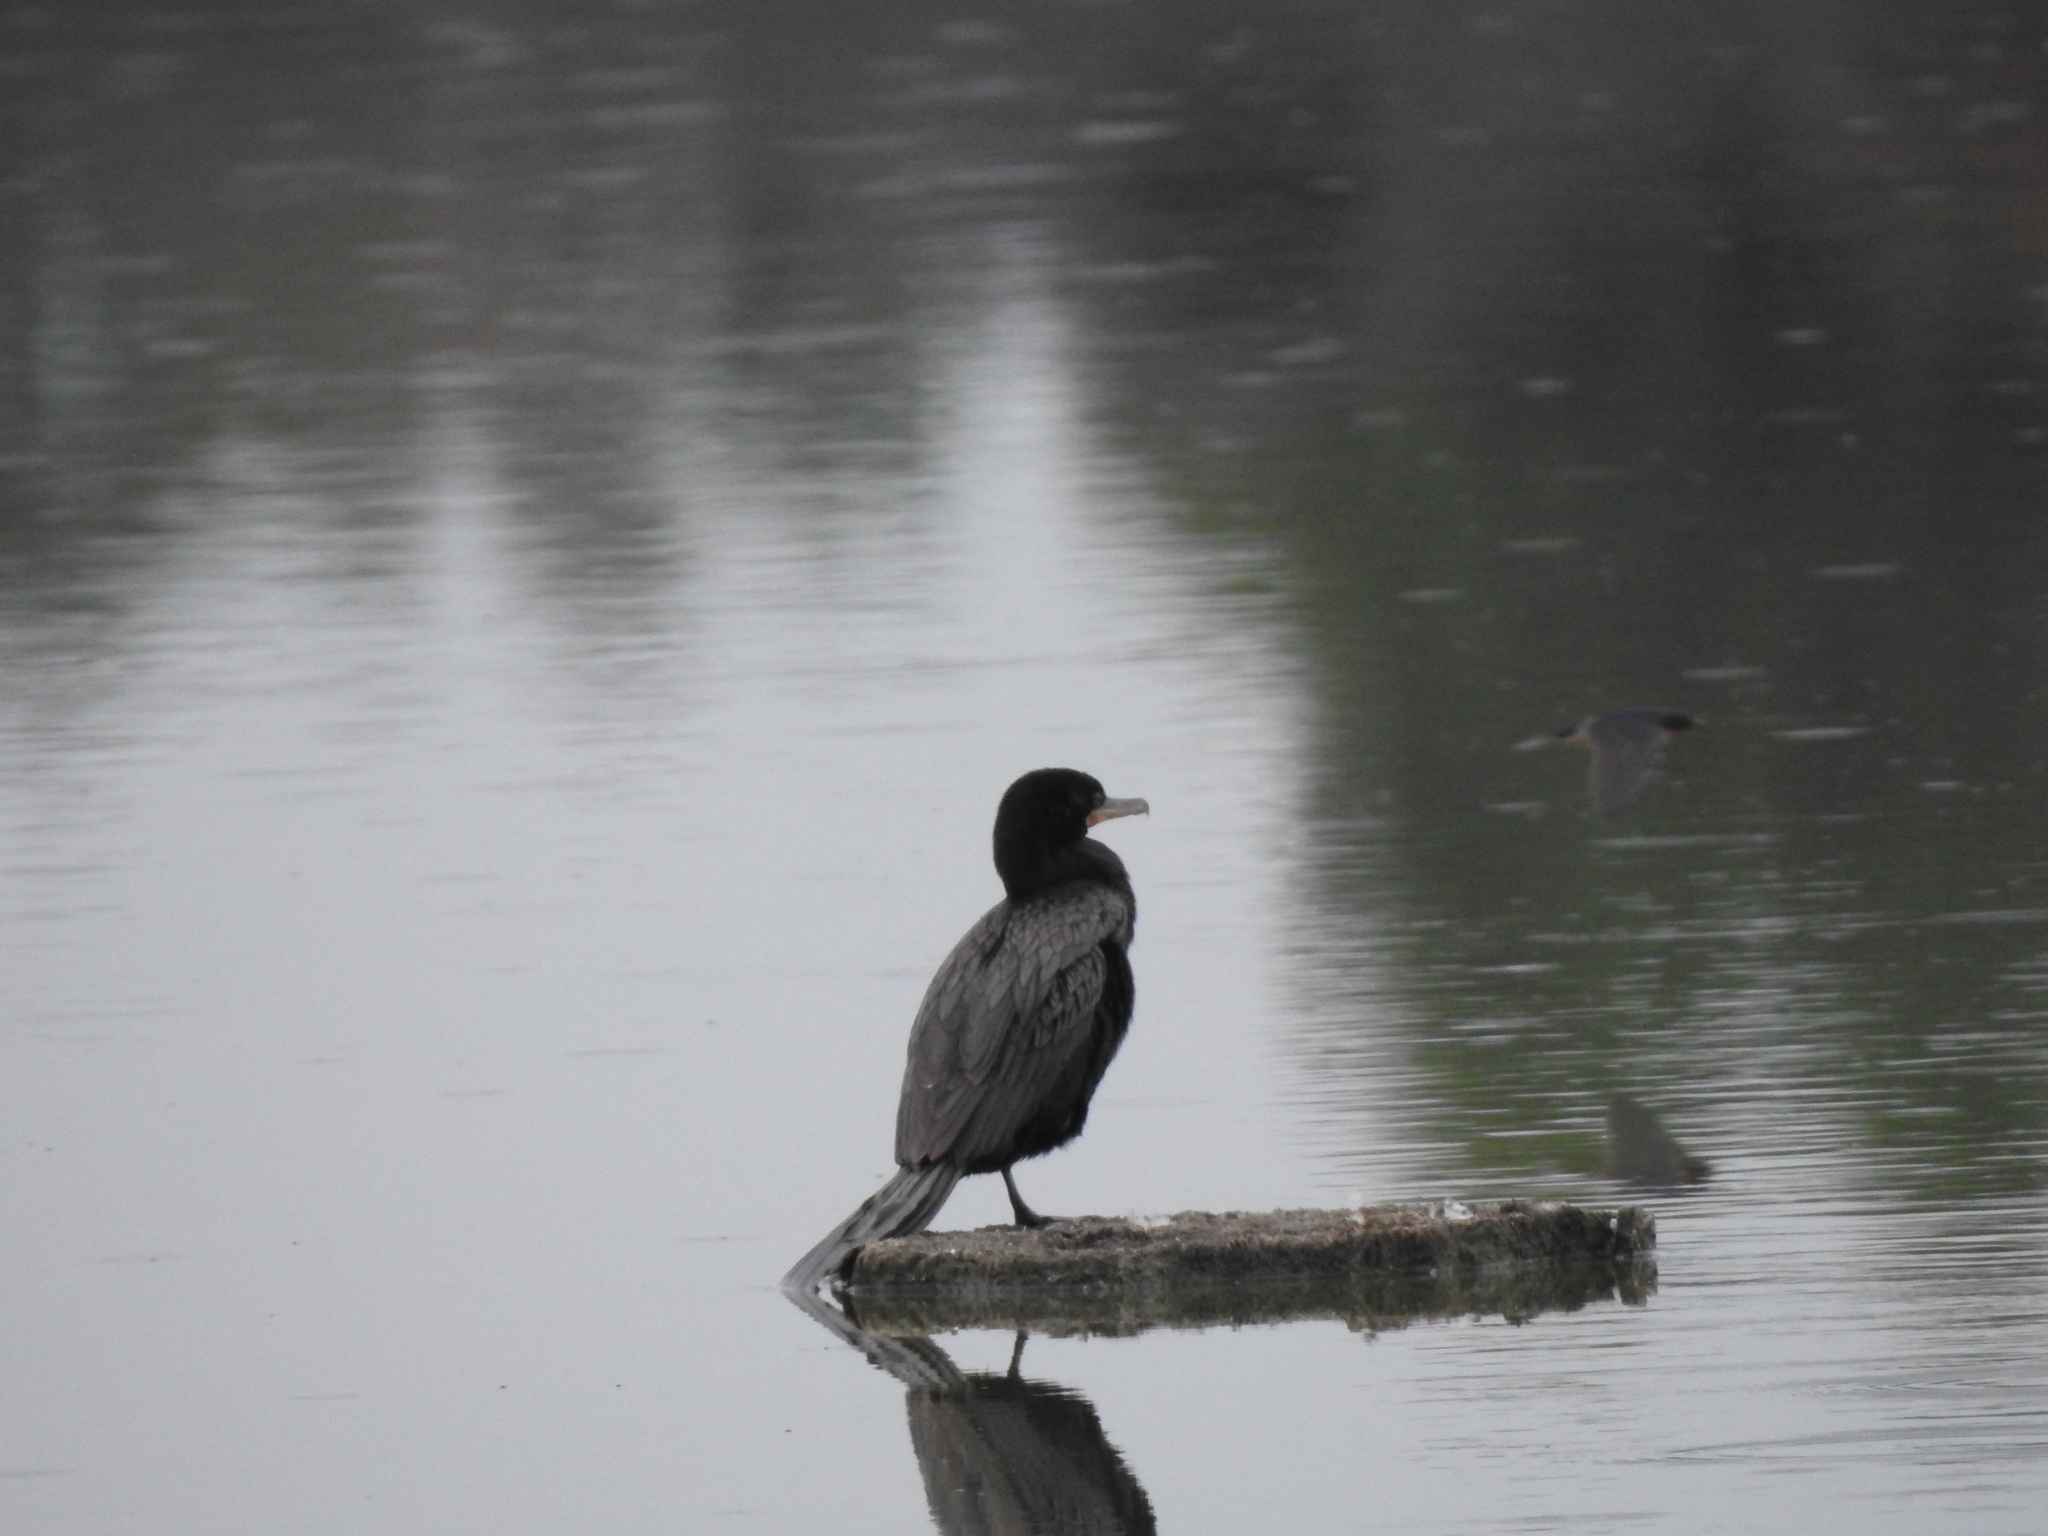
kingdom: Animalia
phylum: Chordata
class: Aves
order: Suliformes
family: Phalacrocoracidae
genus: Phalacrocorax
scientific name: Phalacrocorax brasilianus
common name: Neotropic cormorant
